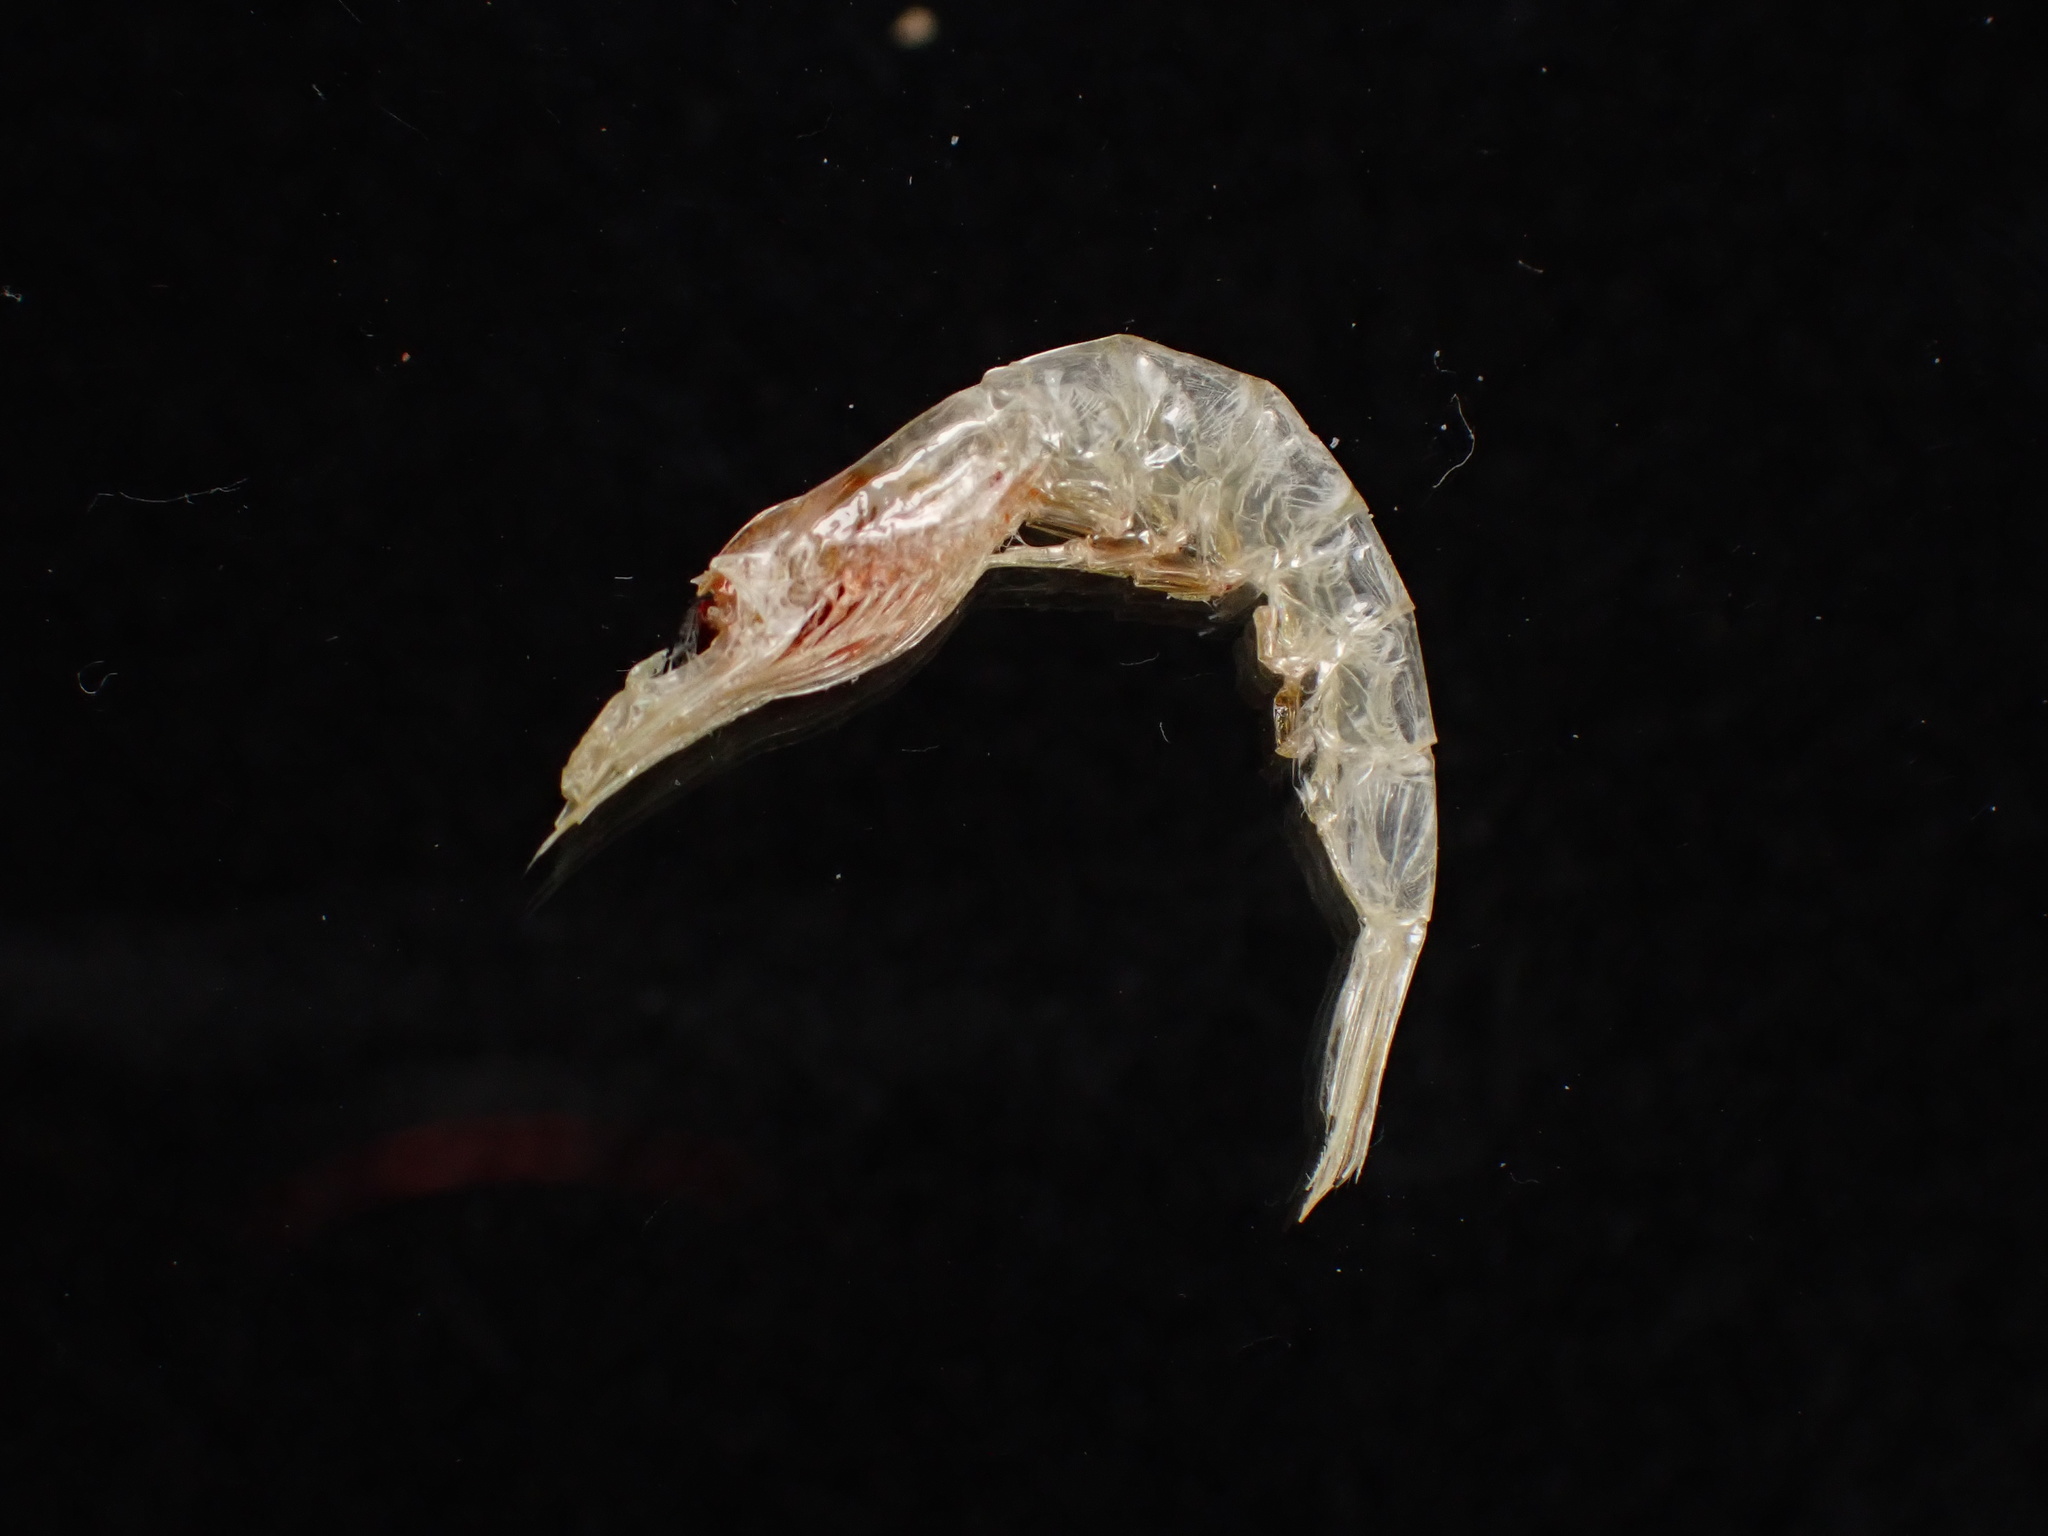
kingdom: Animalia
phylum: Arthropoda
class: Malacostraca
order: Euphausiacea
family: Euphausiidae
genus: Meganyctiphanes
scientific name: Meganyctiphanes norvegica
